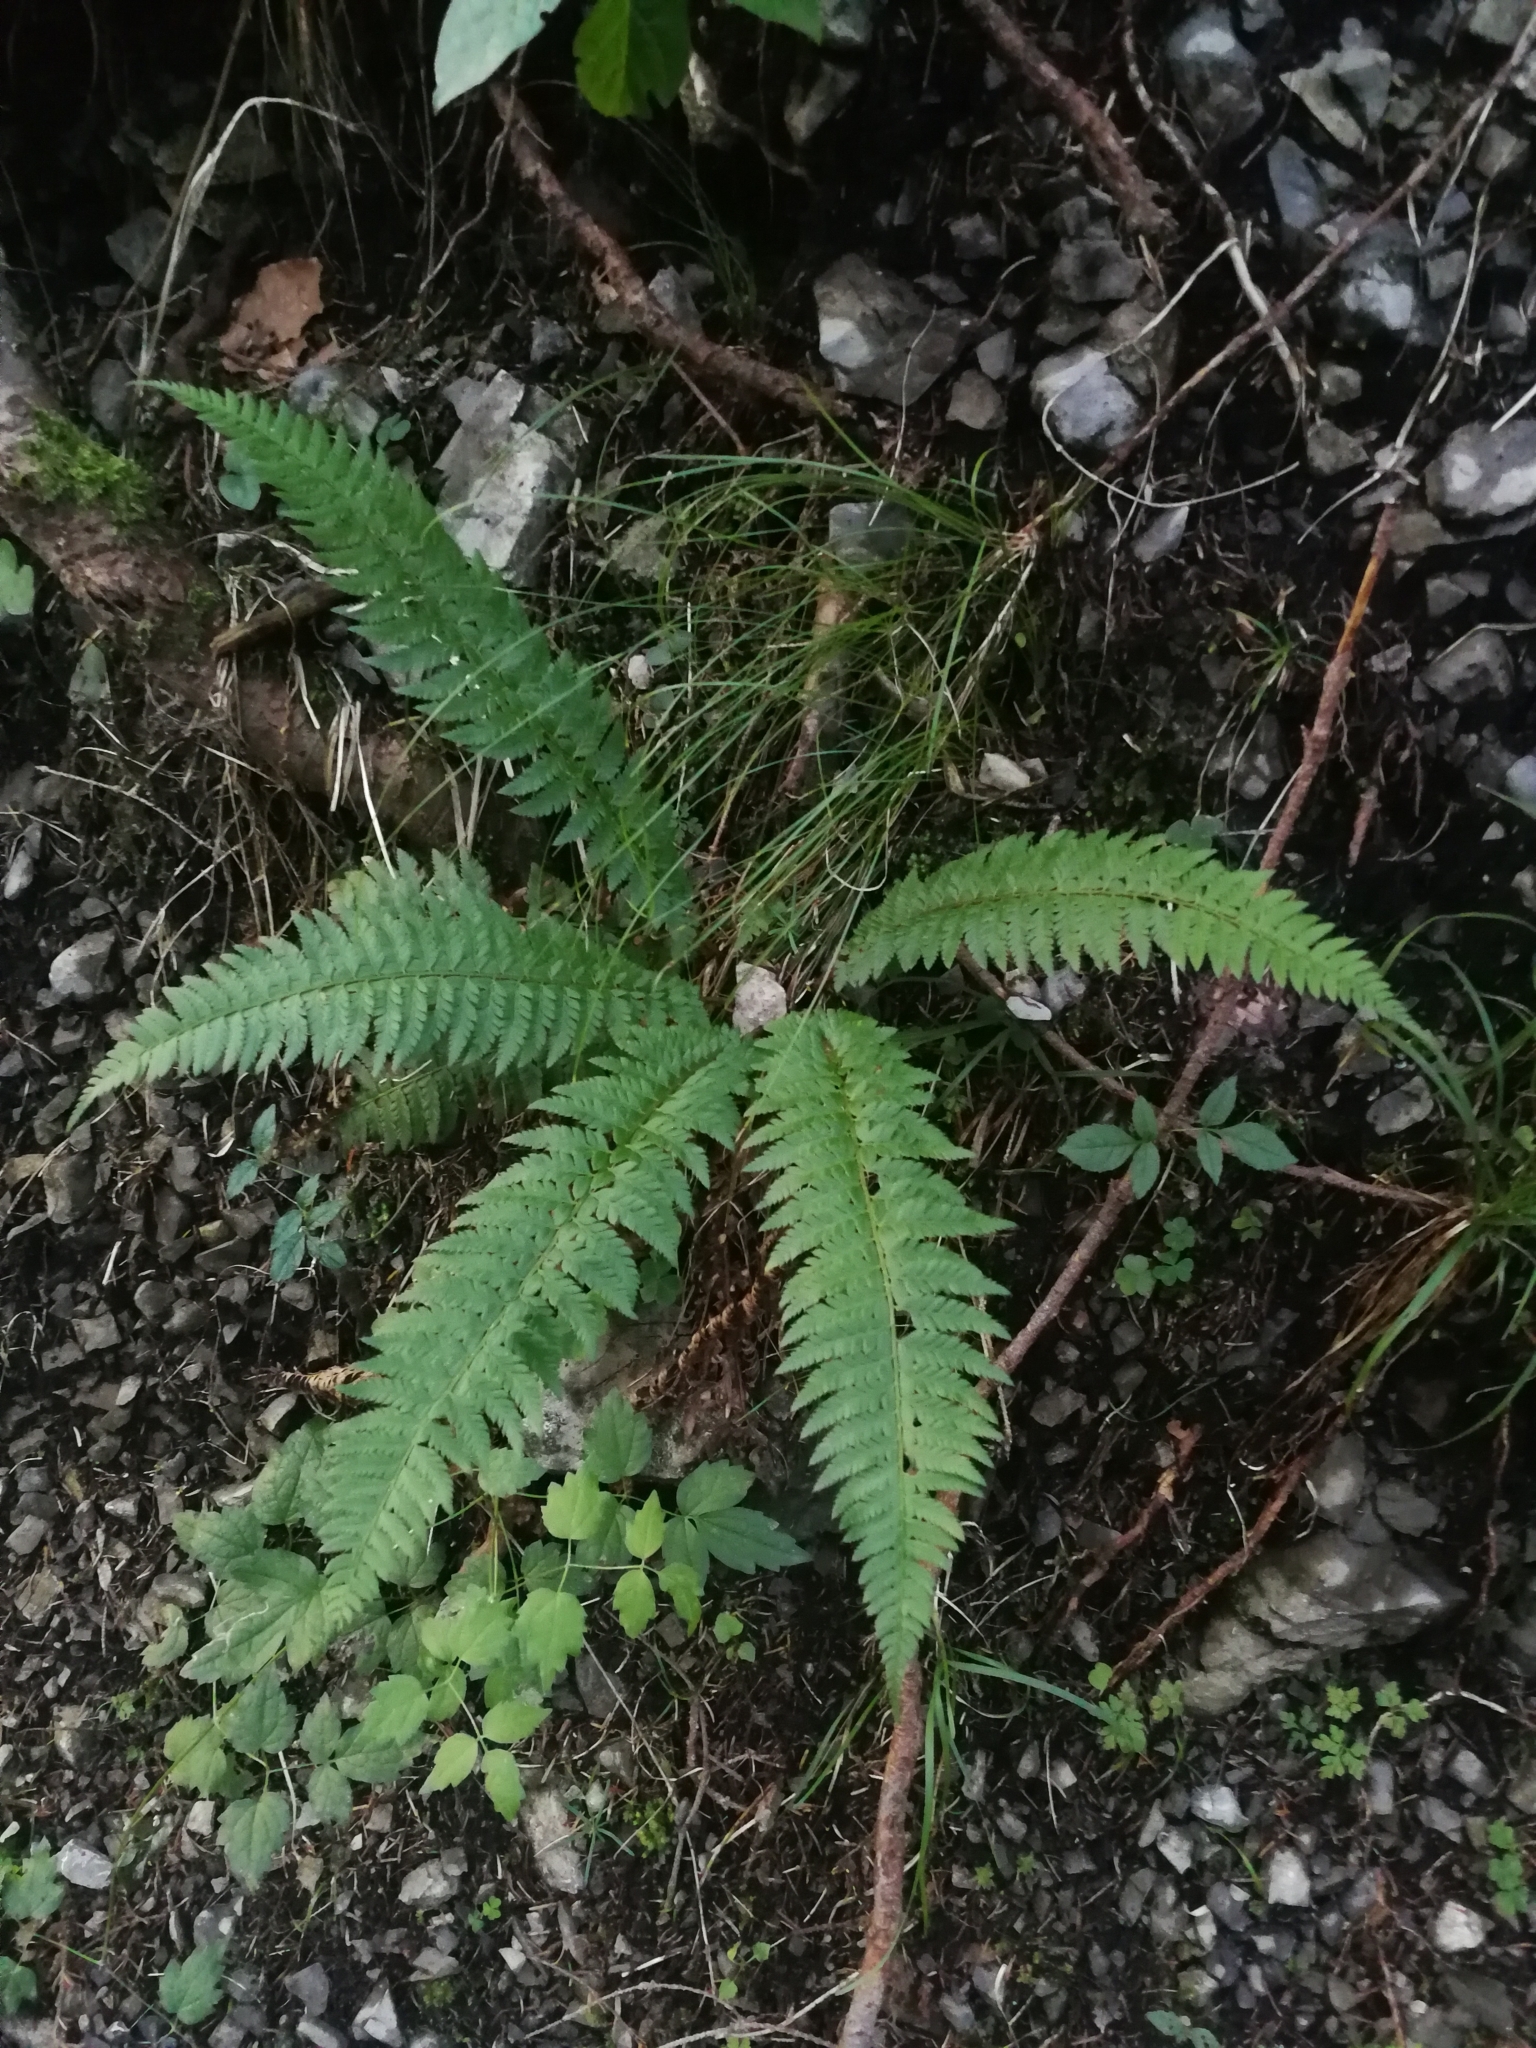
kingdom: Plantae
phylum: Tracheophyta
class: Polypodiopsida
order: Polypodiales
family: Dryopteridaceae
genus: Polystichum
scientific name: Polystichum aculeatum
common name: Hard shield-fern
